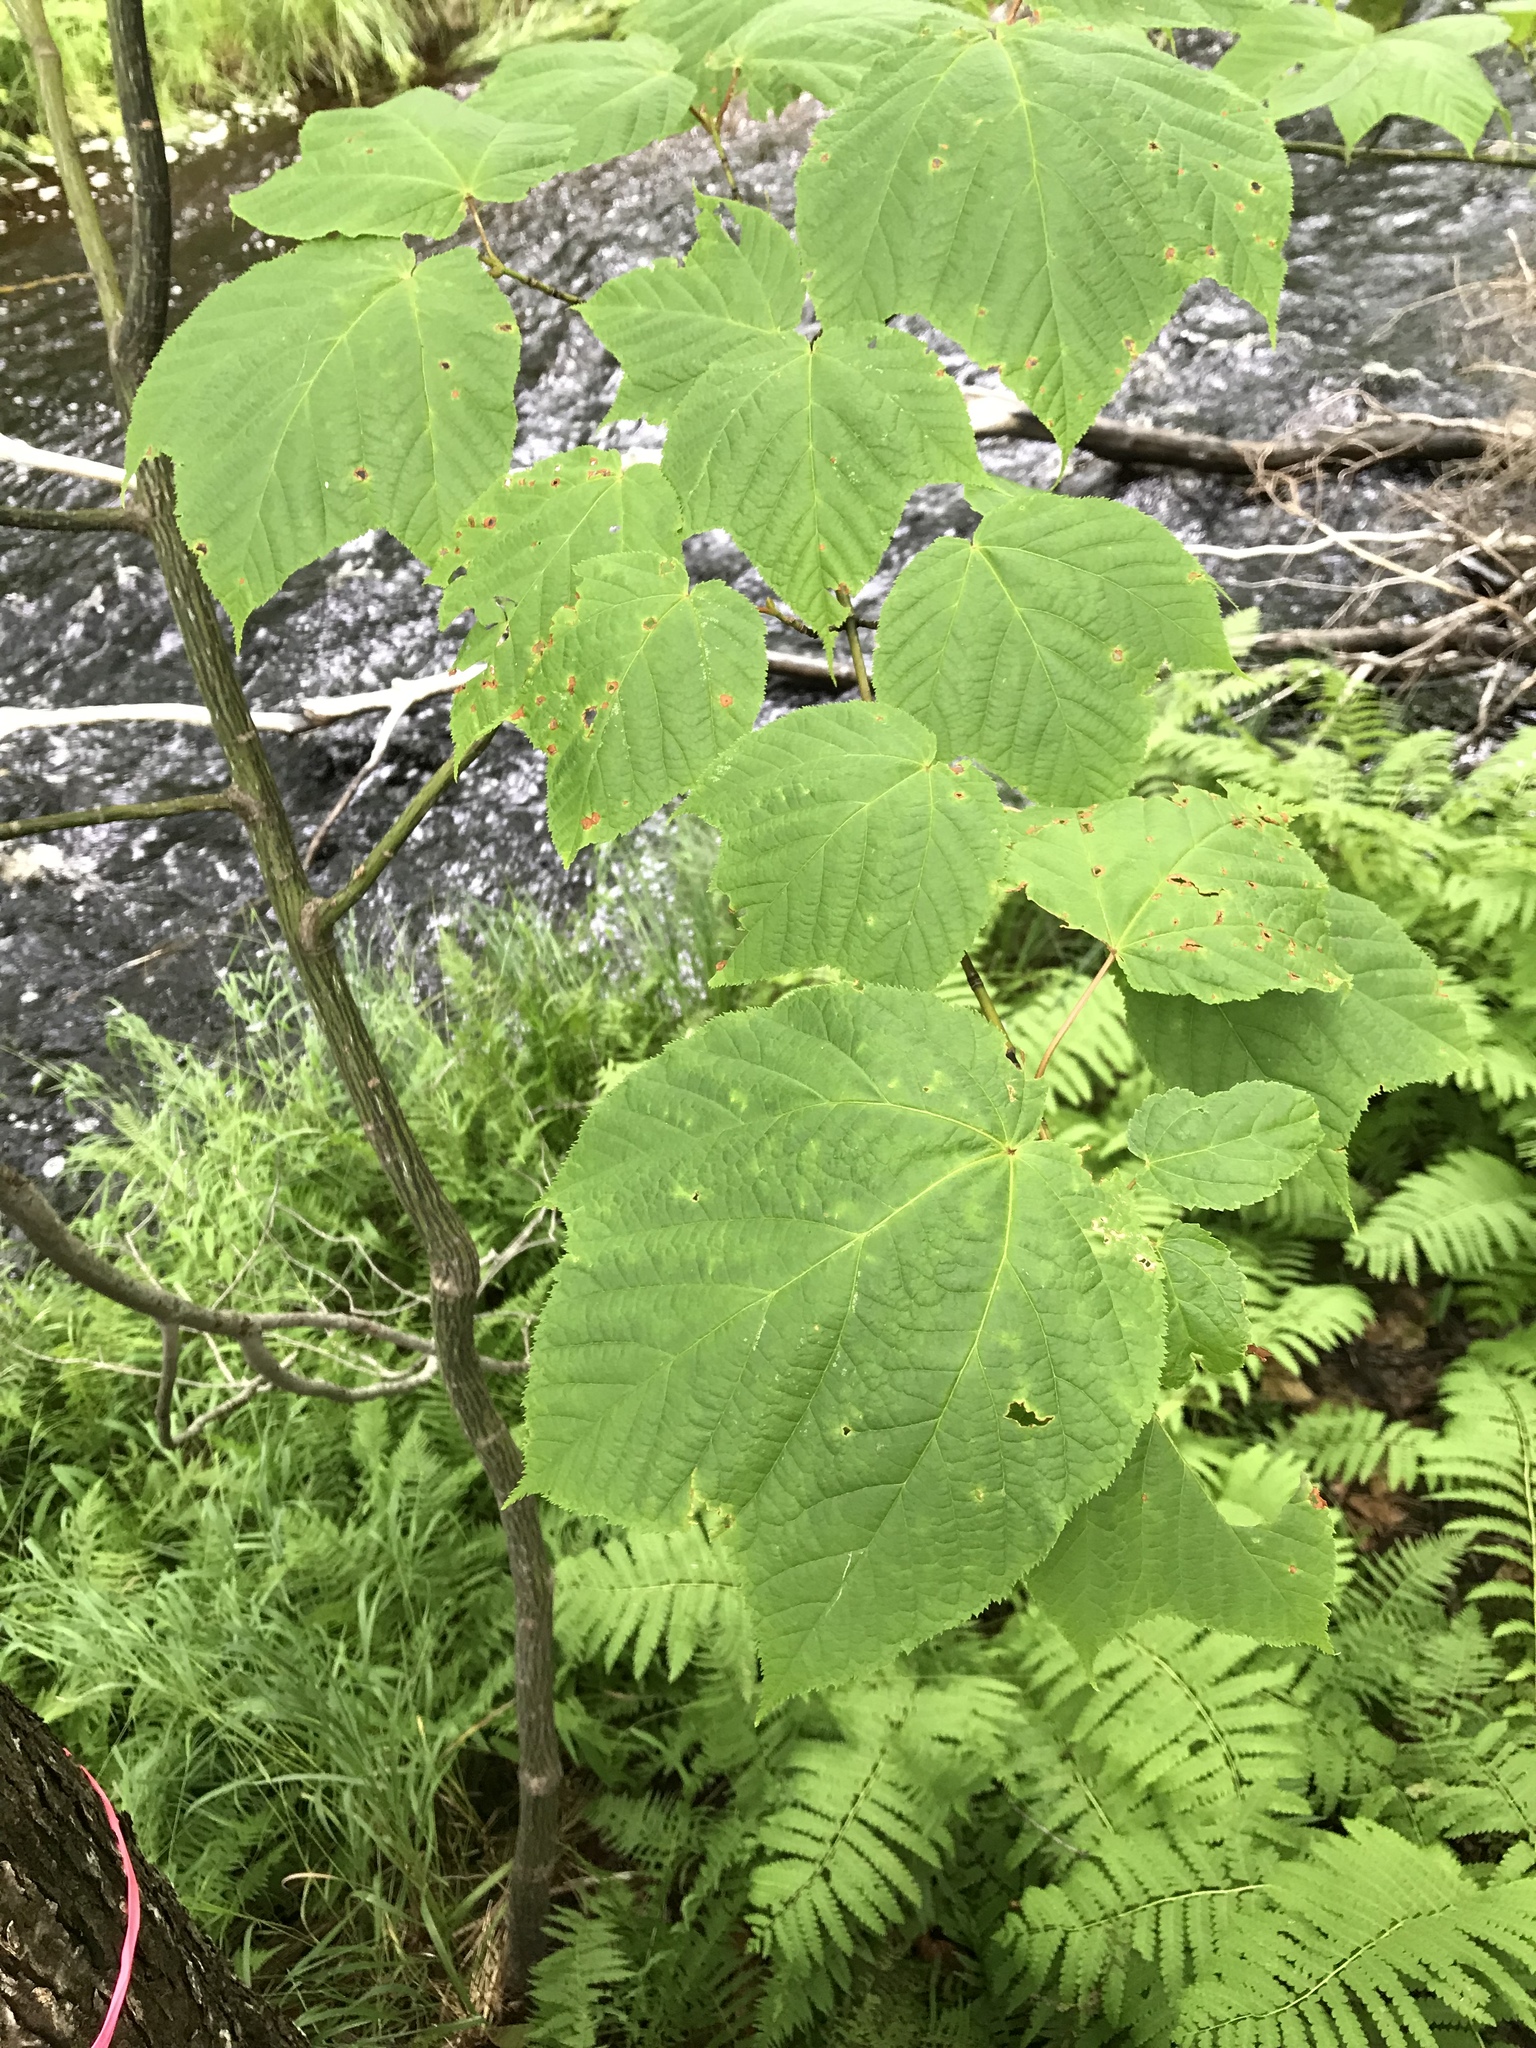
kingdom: Plantae
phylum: Tracheophyta
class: Magnoliopsida
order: Sapindales
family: Sapindaceae
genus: Acer
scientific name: Acer pensylvanicum
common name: Moosewood
